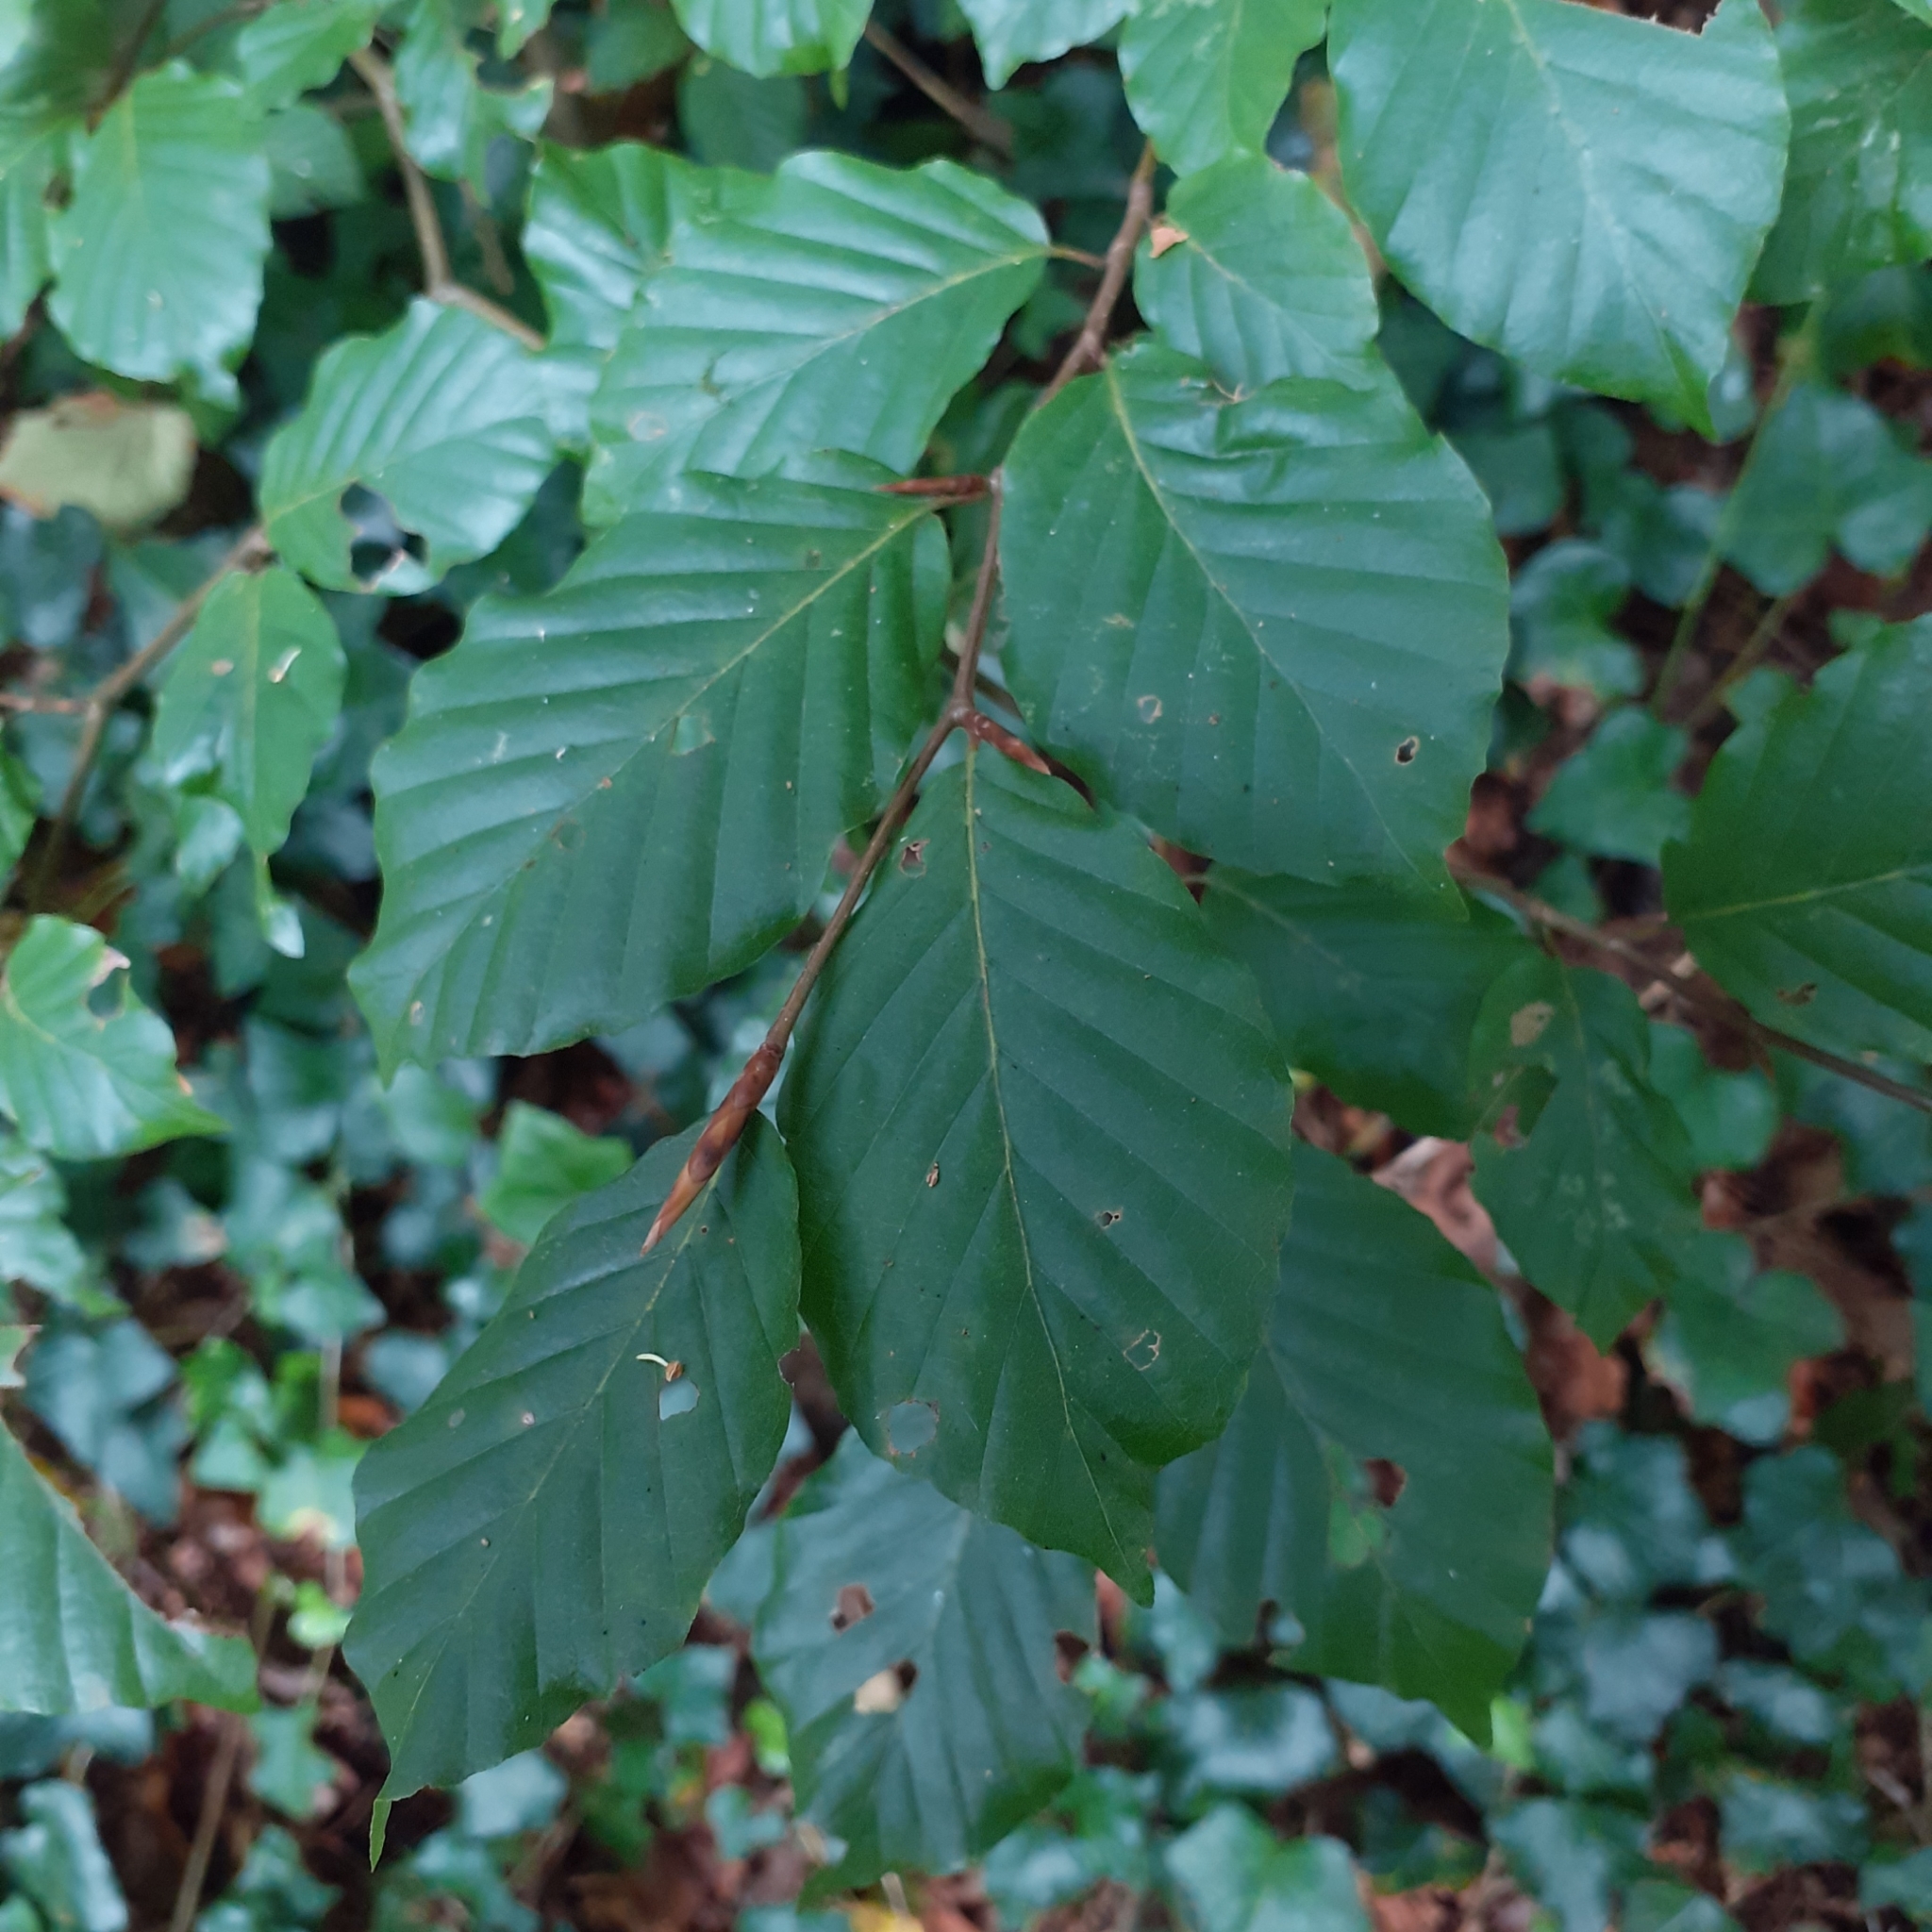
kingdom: Plantae
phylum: Tracheophyta
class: Magnoliopsida
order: Fagales
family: Fagaceae
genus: Fagus
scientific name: Fagus sylvatica
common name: Beech
